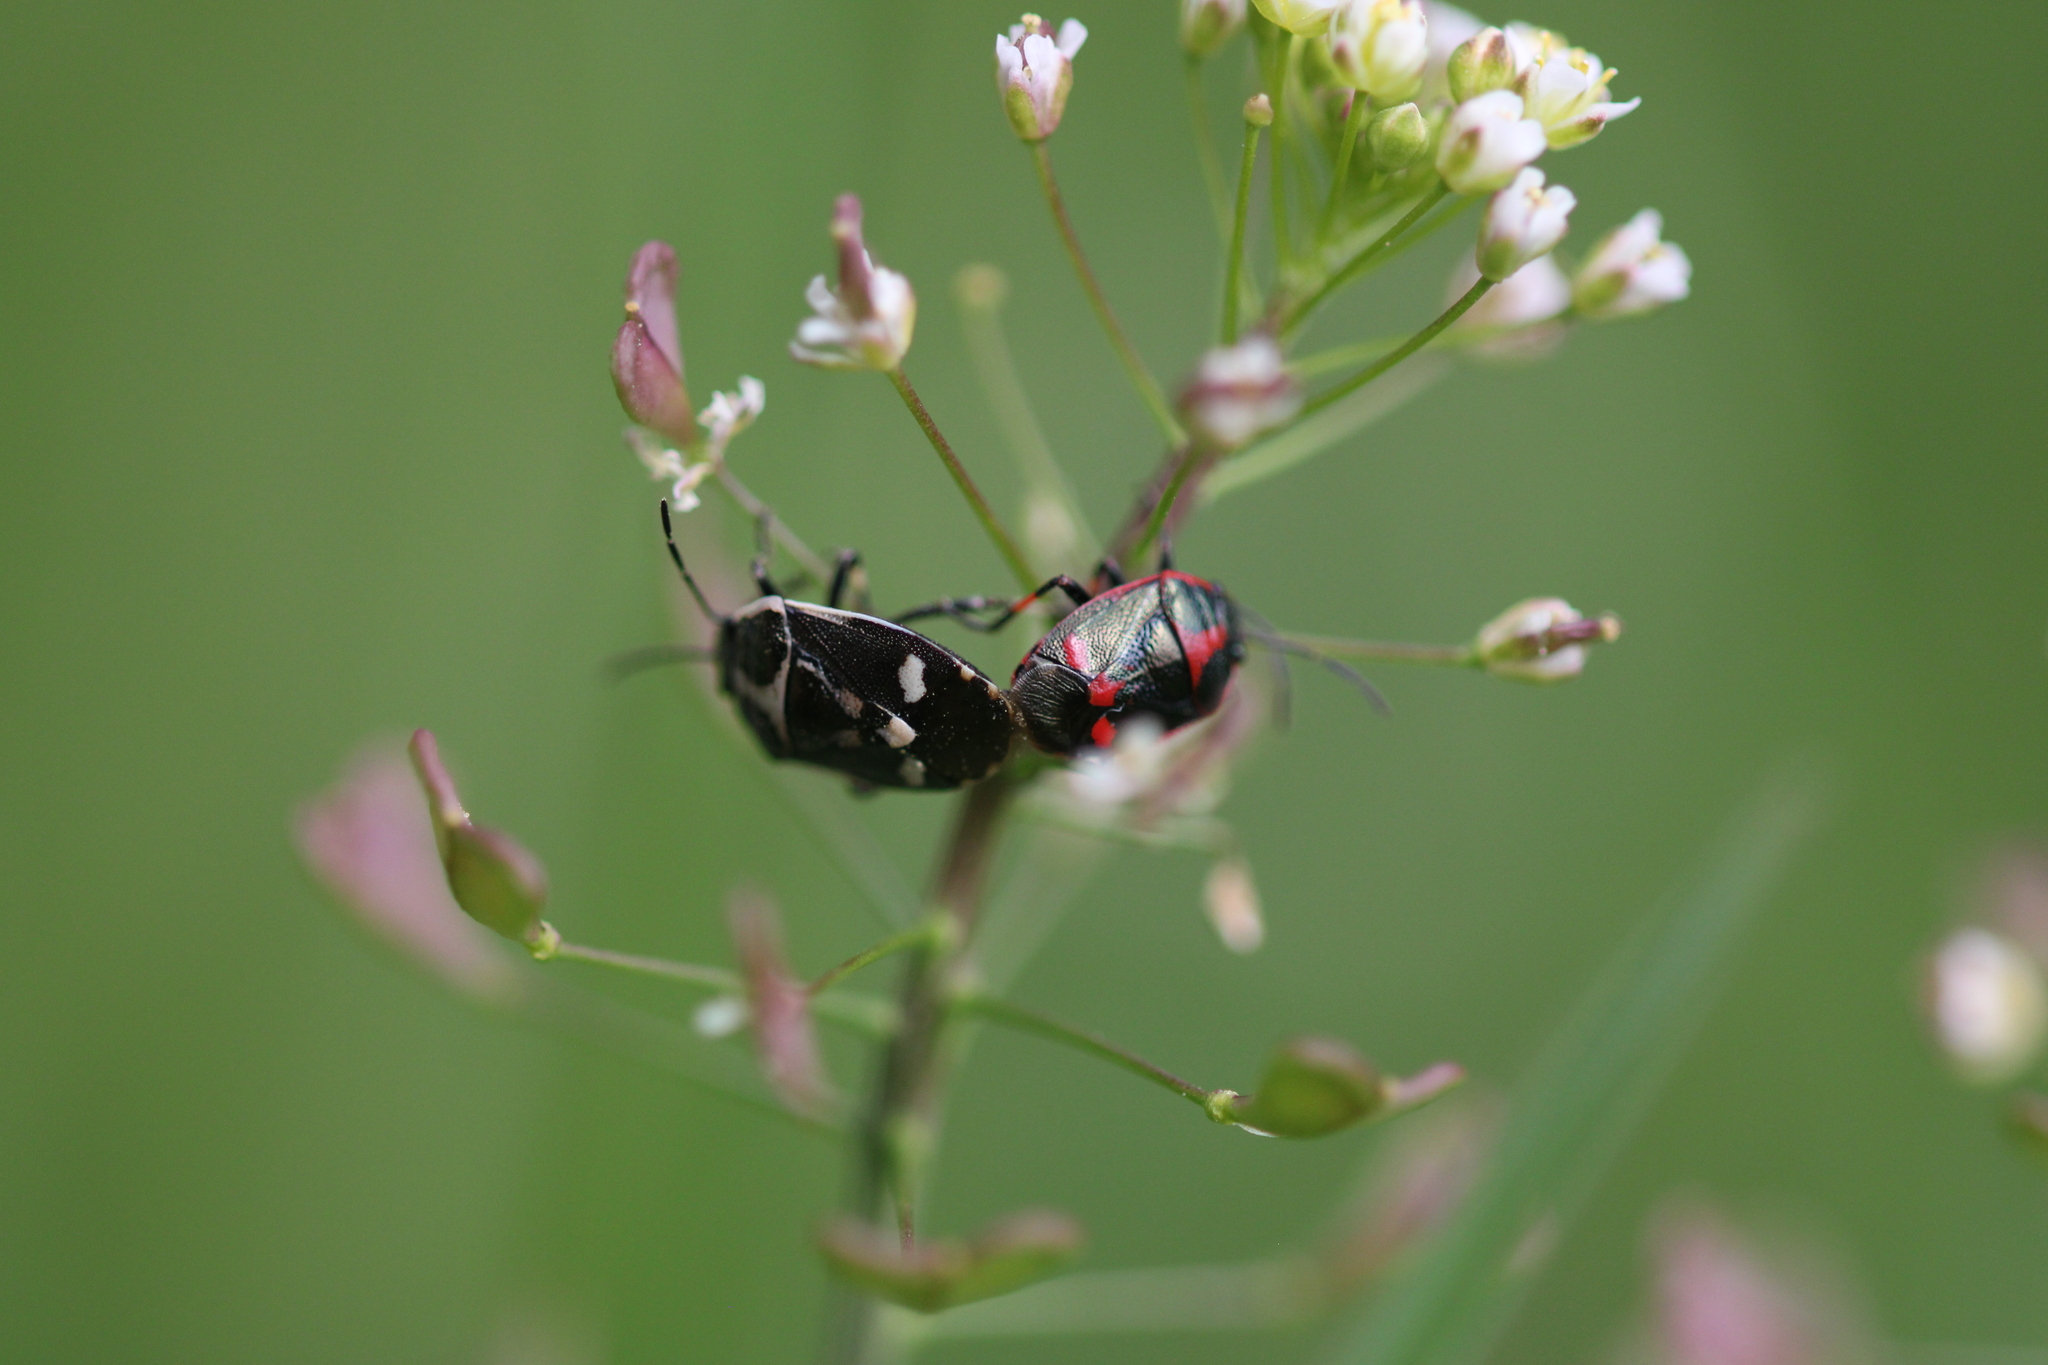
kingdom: Animalia
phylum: Arthropoda
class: Insecta
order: Hemiptera
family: Pentatomidae
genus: Eurydema
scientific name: Eurydema oleracea
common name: Cabbage bug
